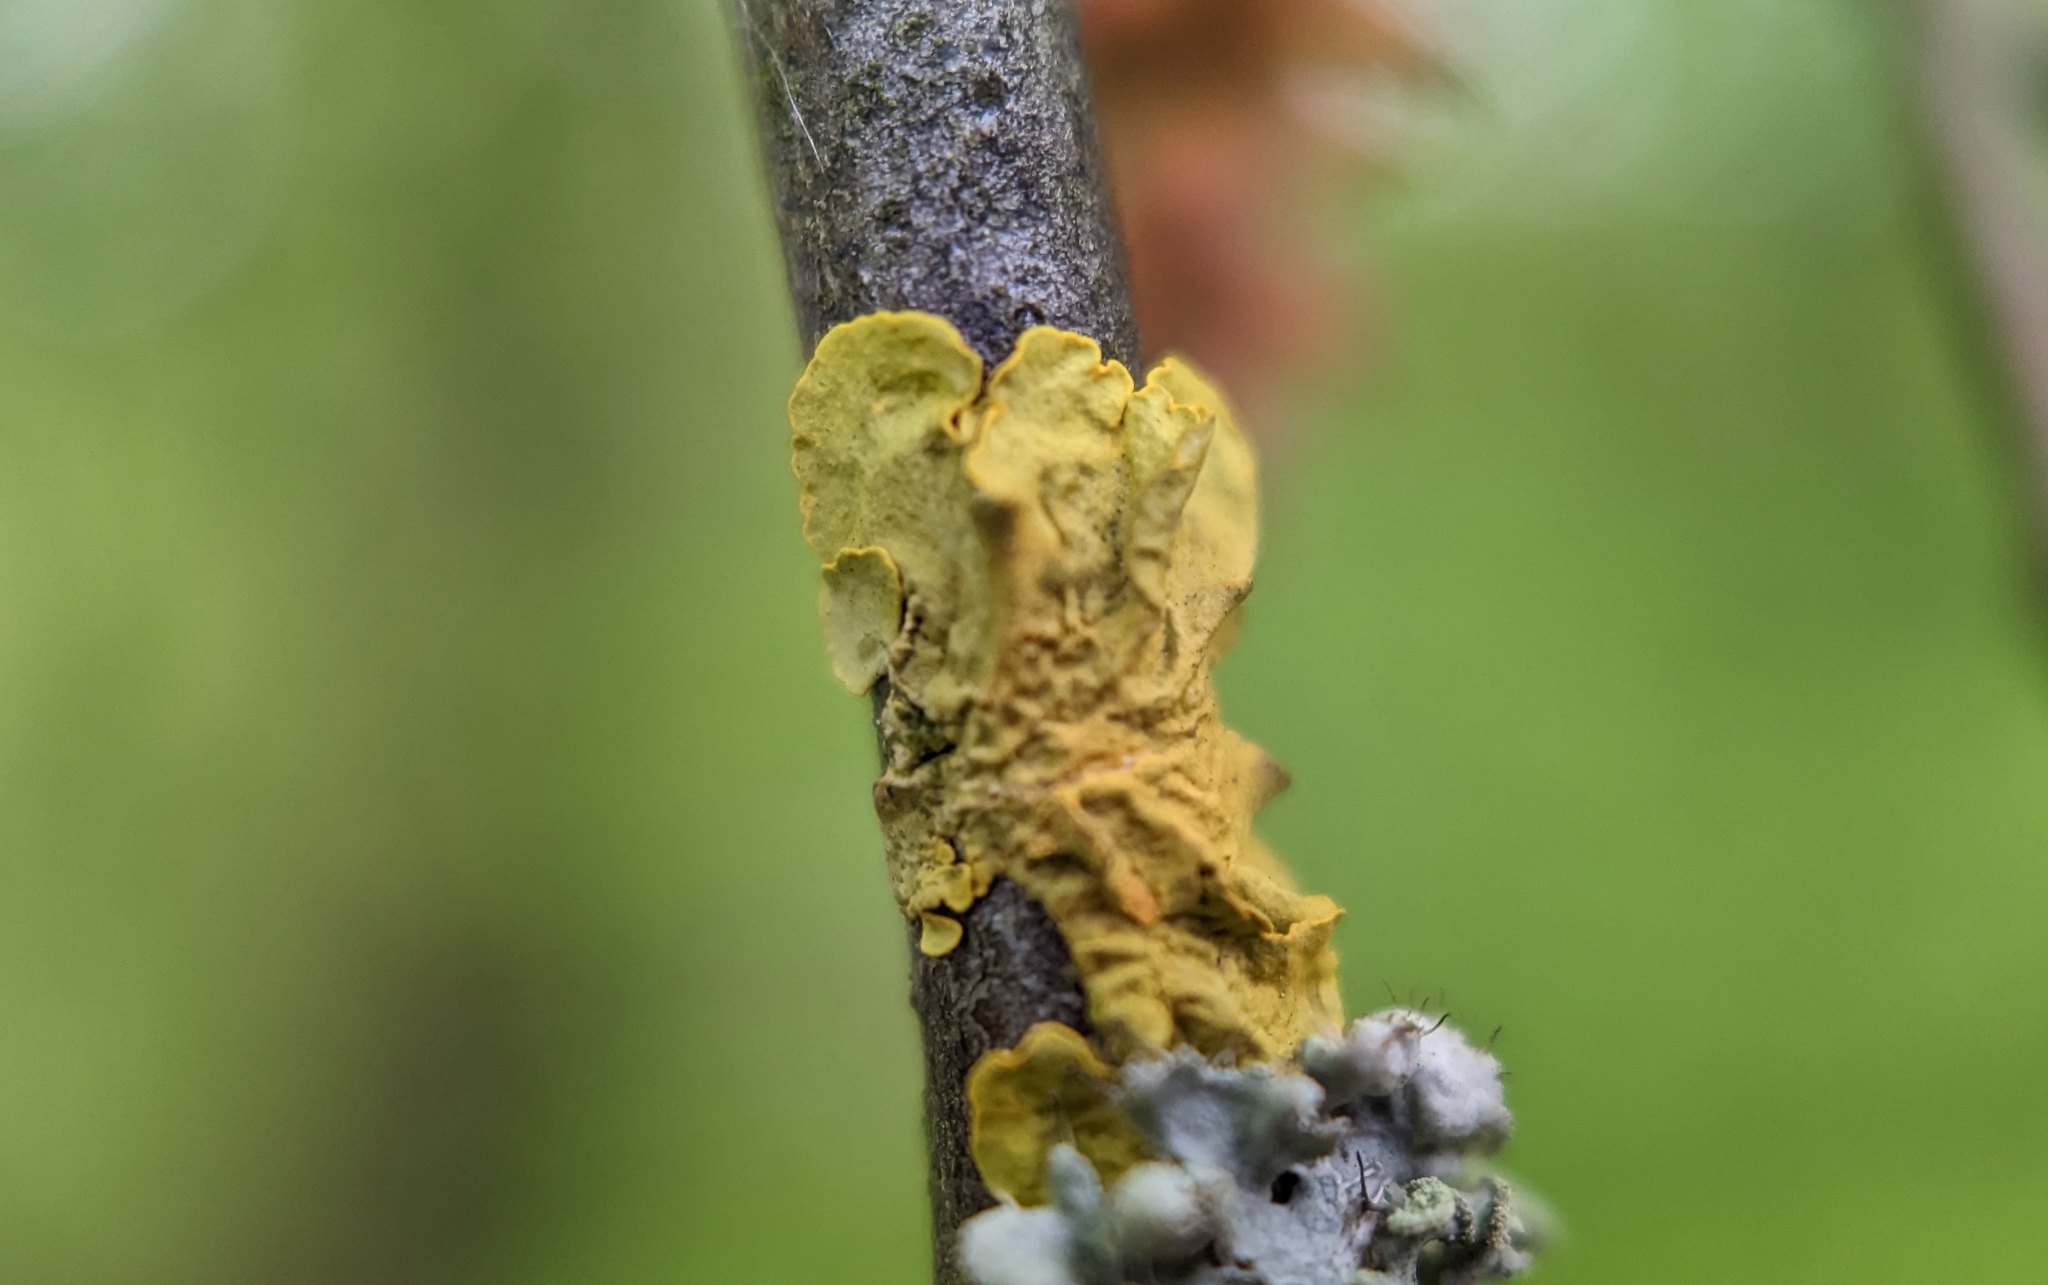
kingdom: Fungi
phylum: Ascomycota
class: Lecanoromycetes
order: Teloschistales
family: Teloschistaceae
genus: Xanthoria
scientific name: Xanthoria parietina
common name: Common orange lichen
